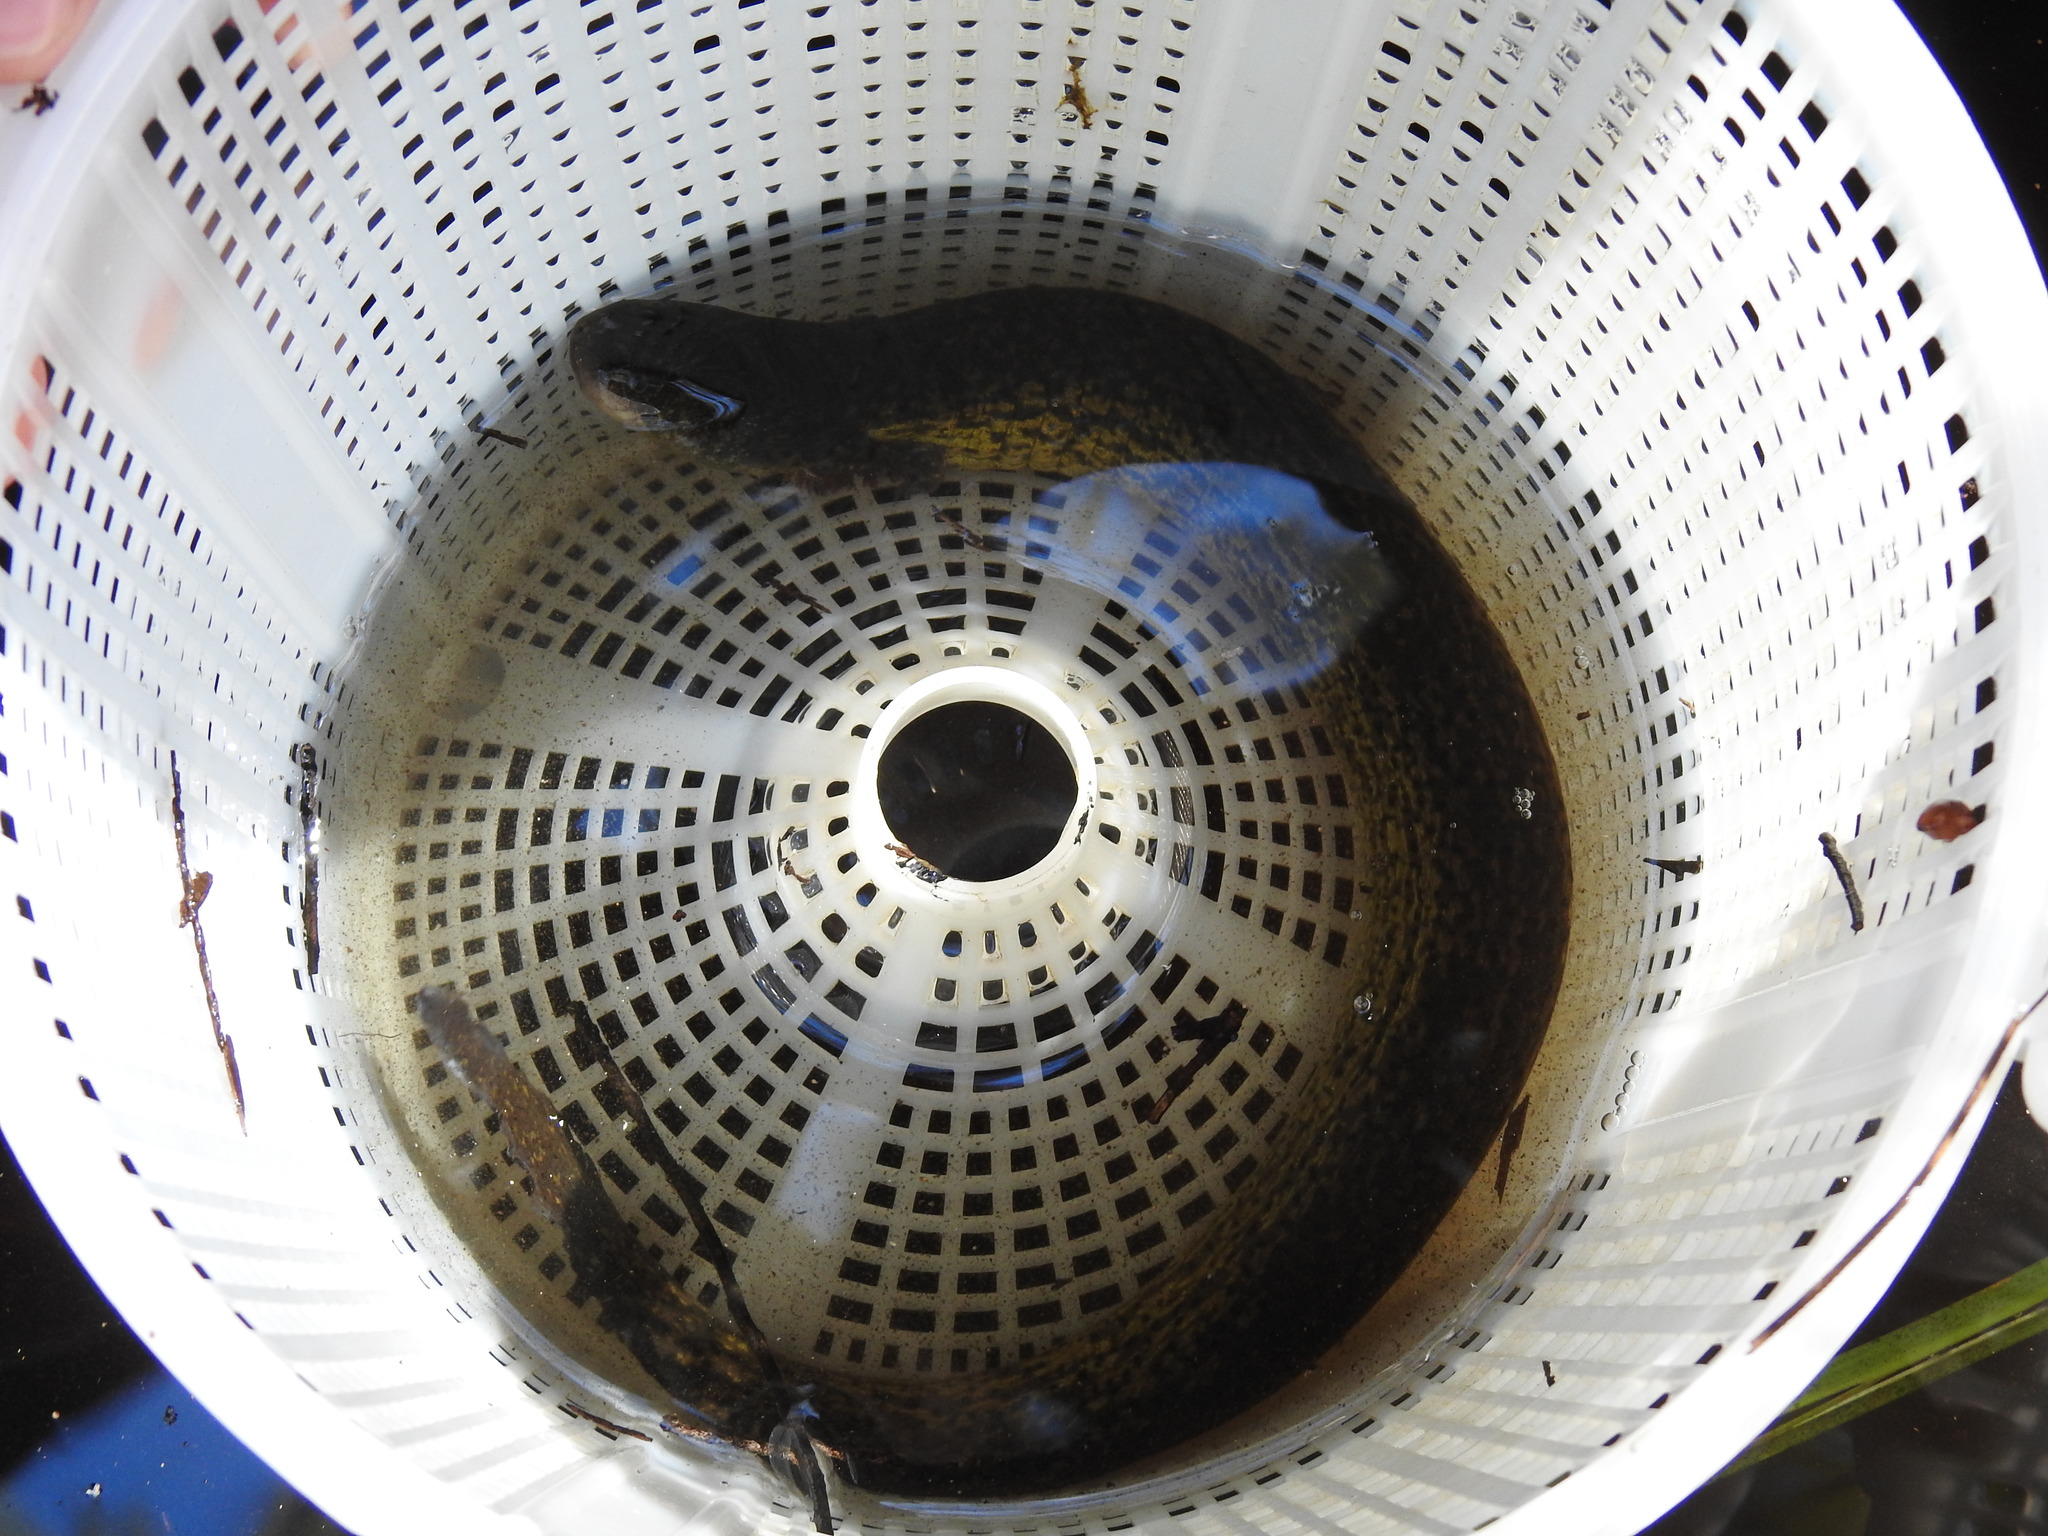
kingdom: Animalia
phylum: Chordata
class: Amphibia
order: Caudata
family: Sirenidae
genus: Siren
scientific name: Siren lacertina
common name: Greater siren
